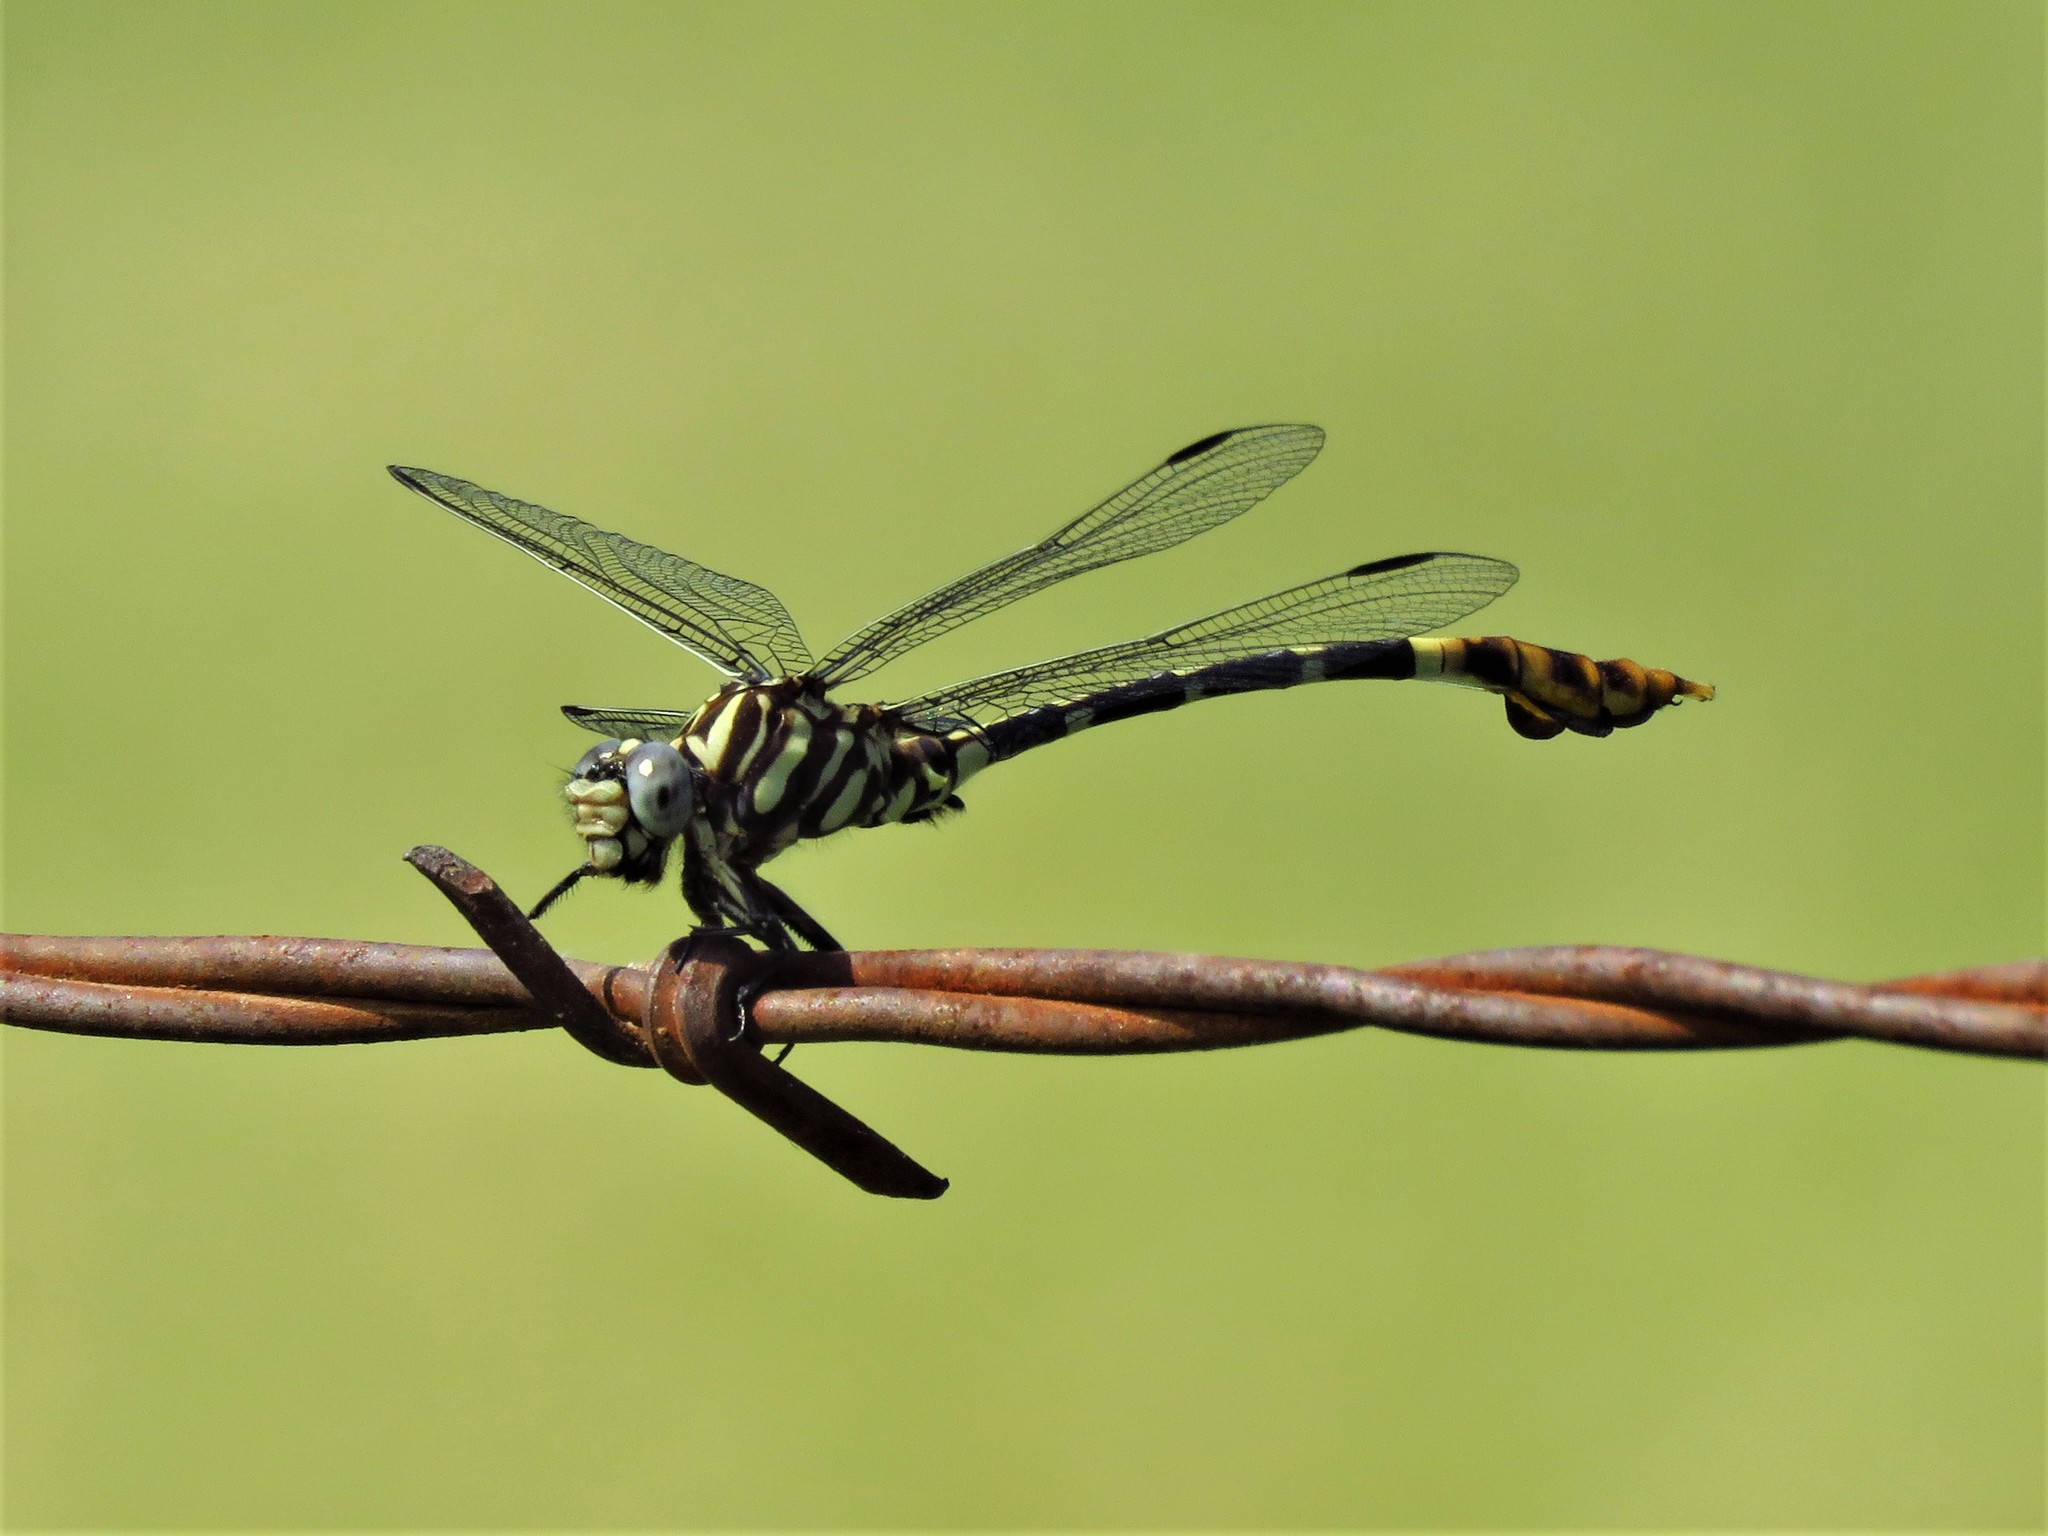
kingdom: Animalia
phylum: Arthropoda
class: Insecta
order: Odonata
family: Gomphidae
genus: Phyllogomphoides
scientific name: Phyllogomphoides albrighti
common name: Five-striped leaftail
